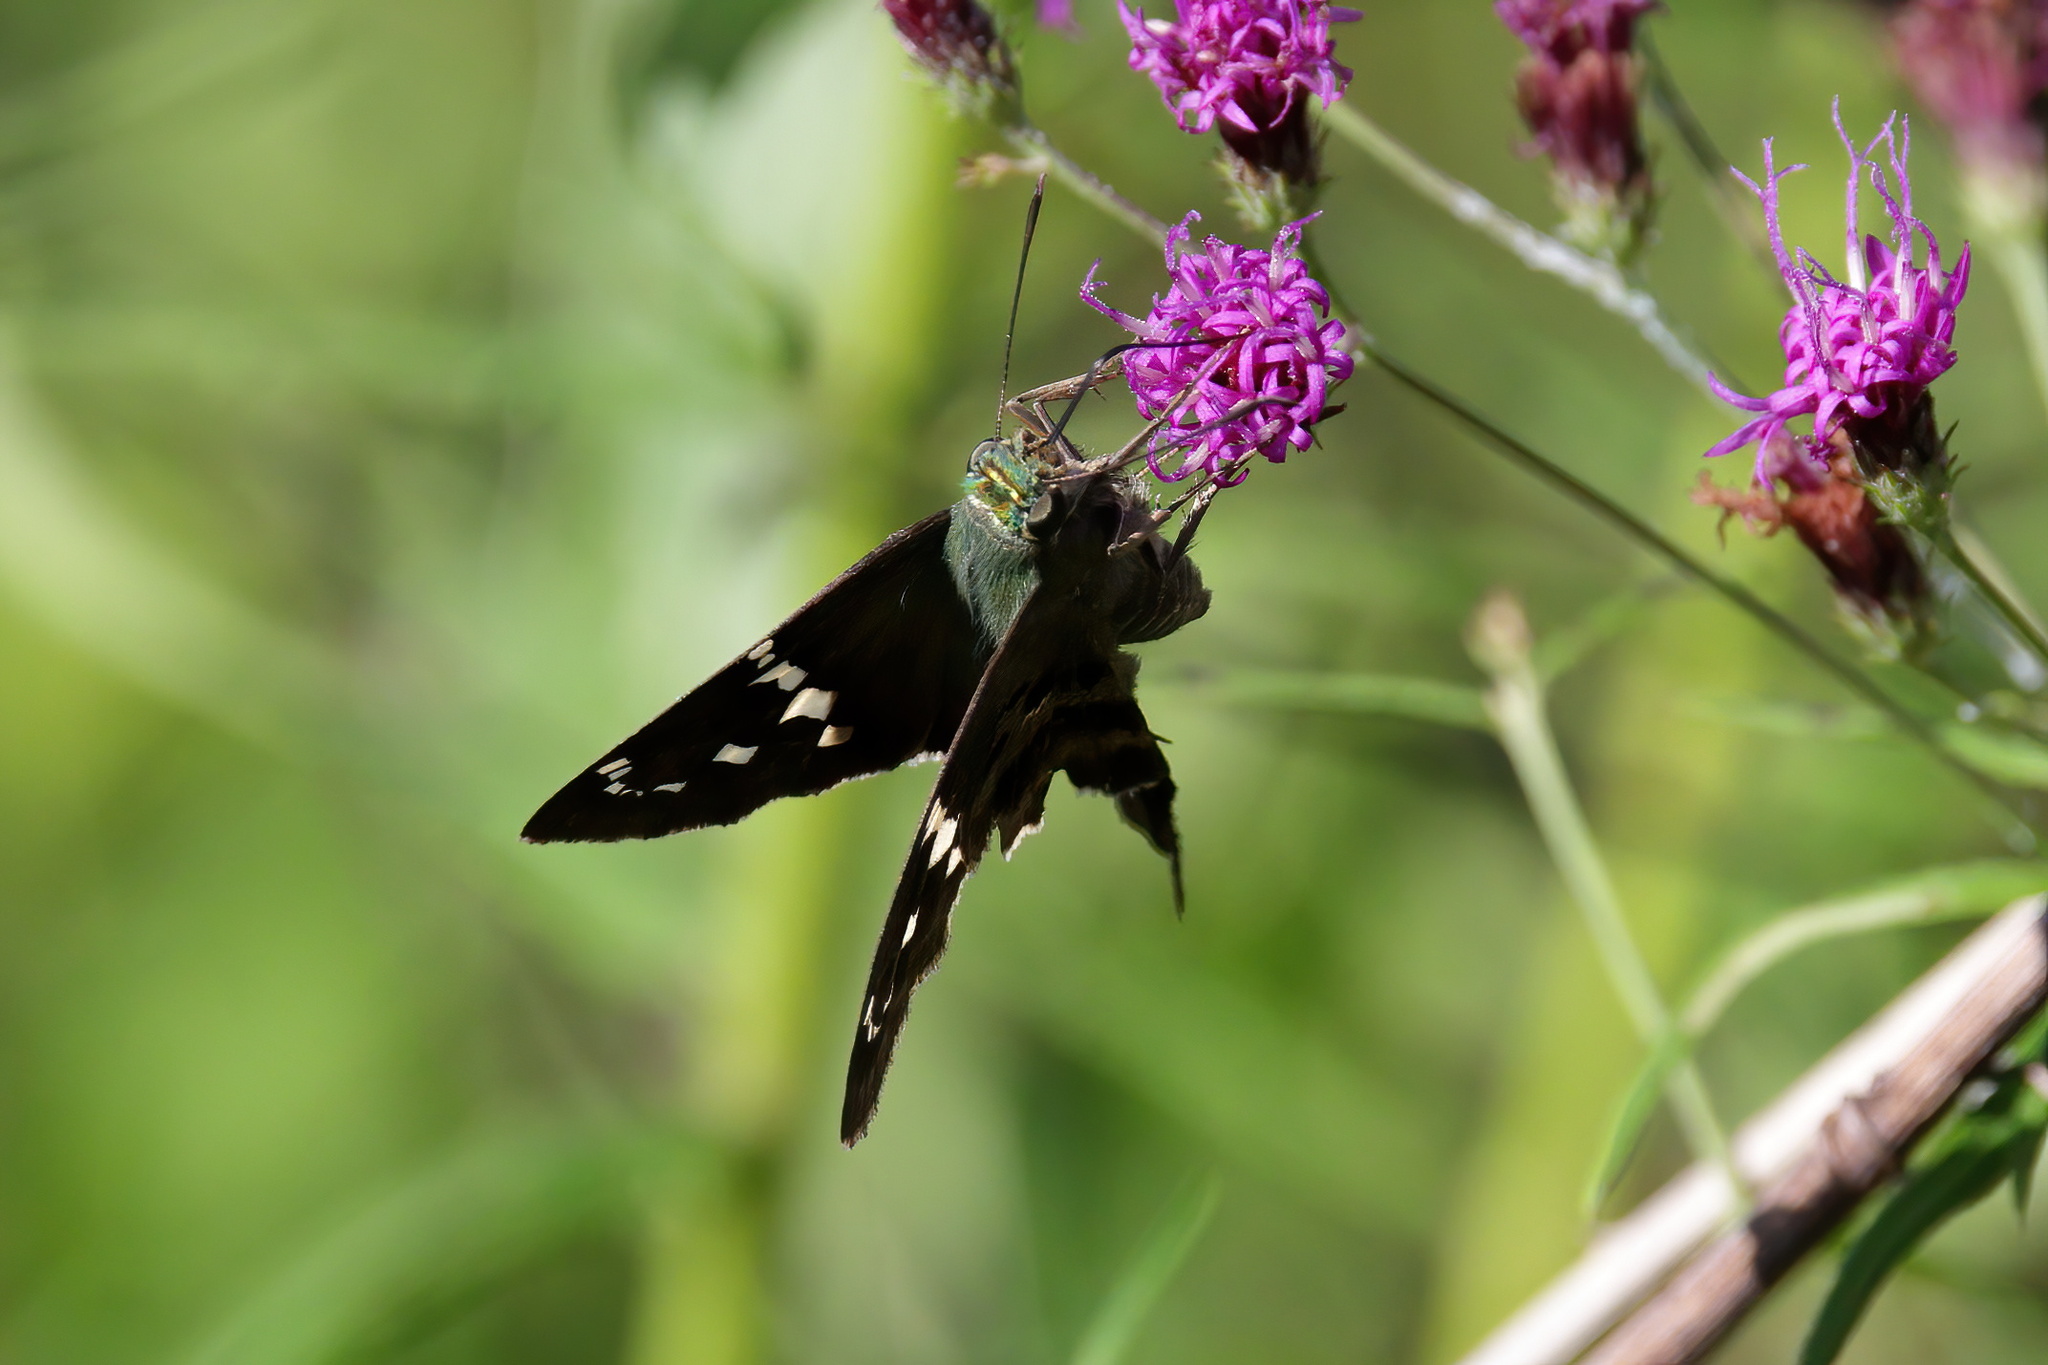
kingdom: Animalia
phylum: Arthropoda
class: Insecta
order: Lepidoptera
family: Hesperiidae
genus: Urbanus
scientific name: Urbanus proteus
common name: Long-tailed skipper
